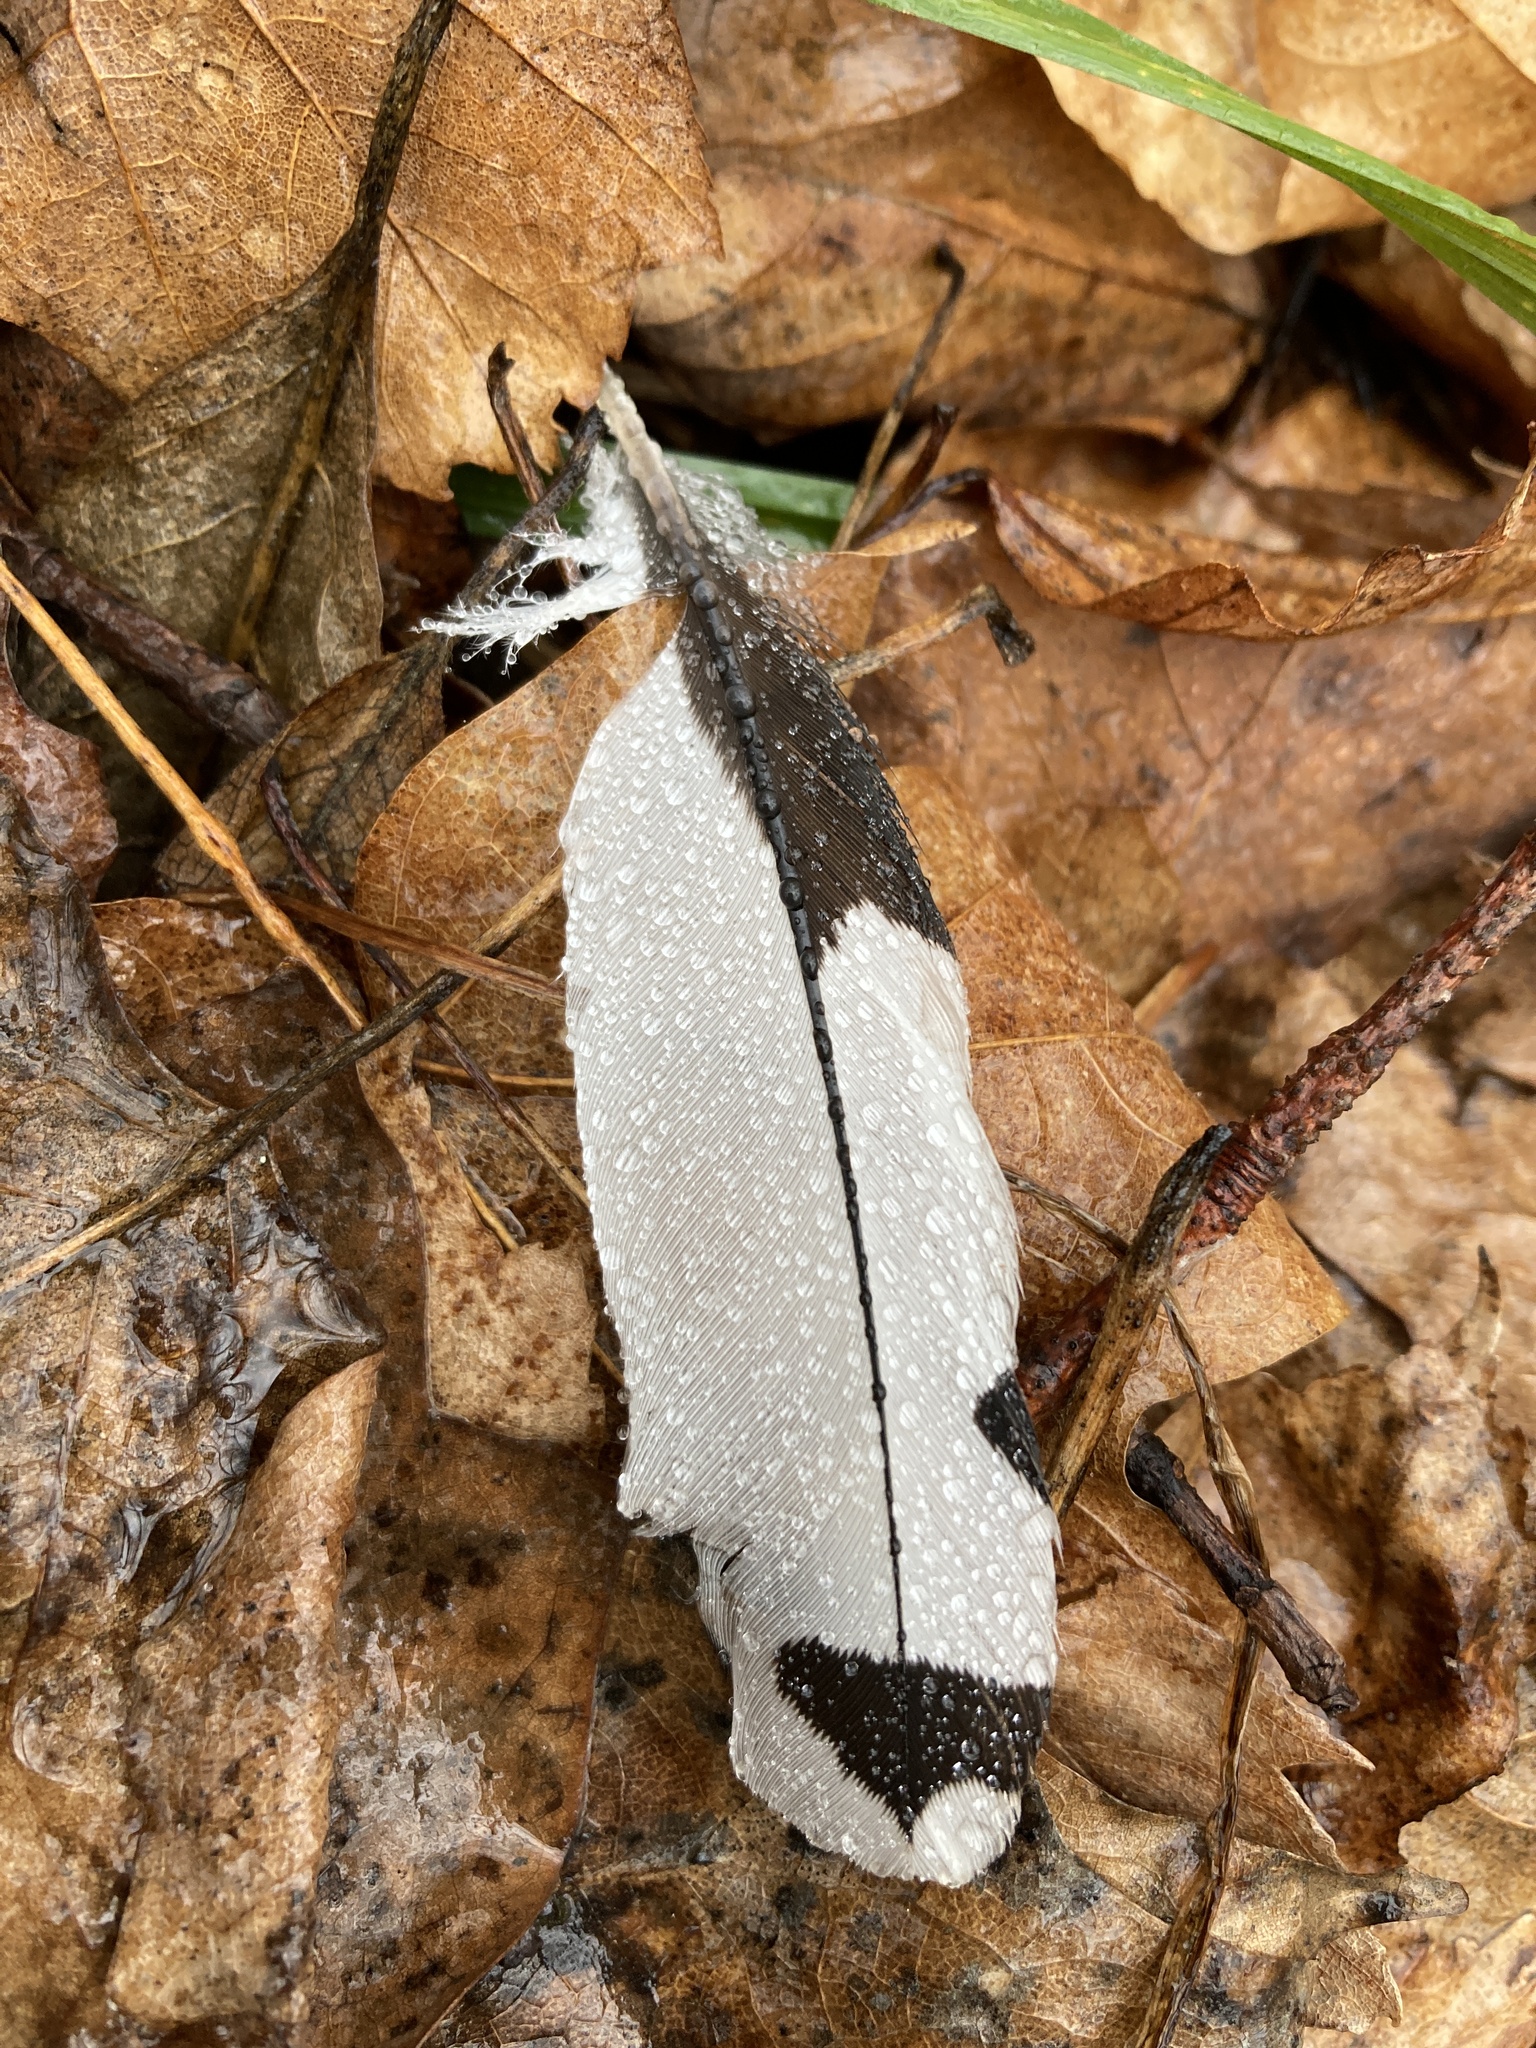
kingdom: Animalia
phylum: Chordata
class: Aves
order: Piciformes
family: Picidae
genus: Melanerpes
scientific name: Melanerpes erythrocephalus
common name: Red-headed woodpecker
